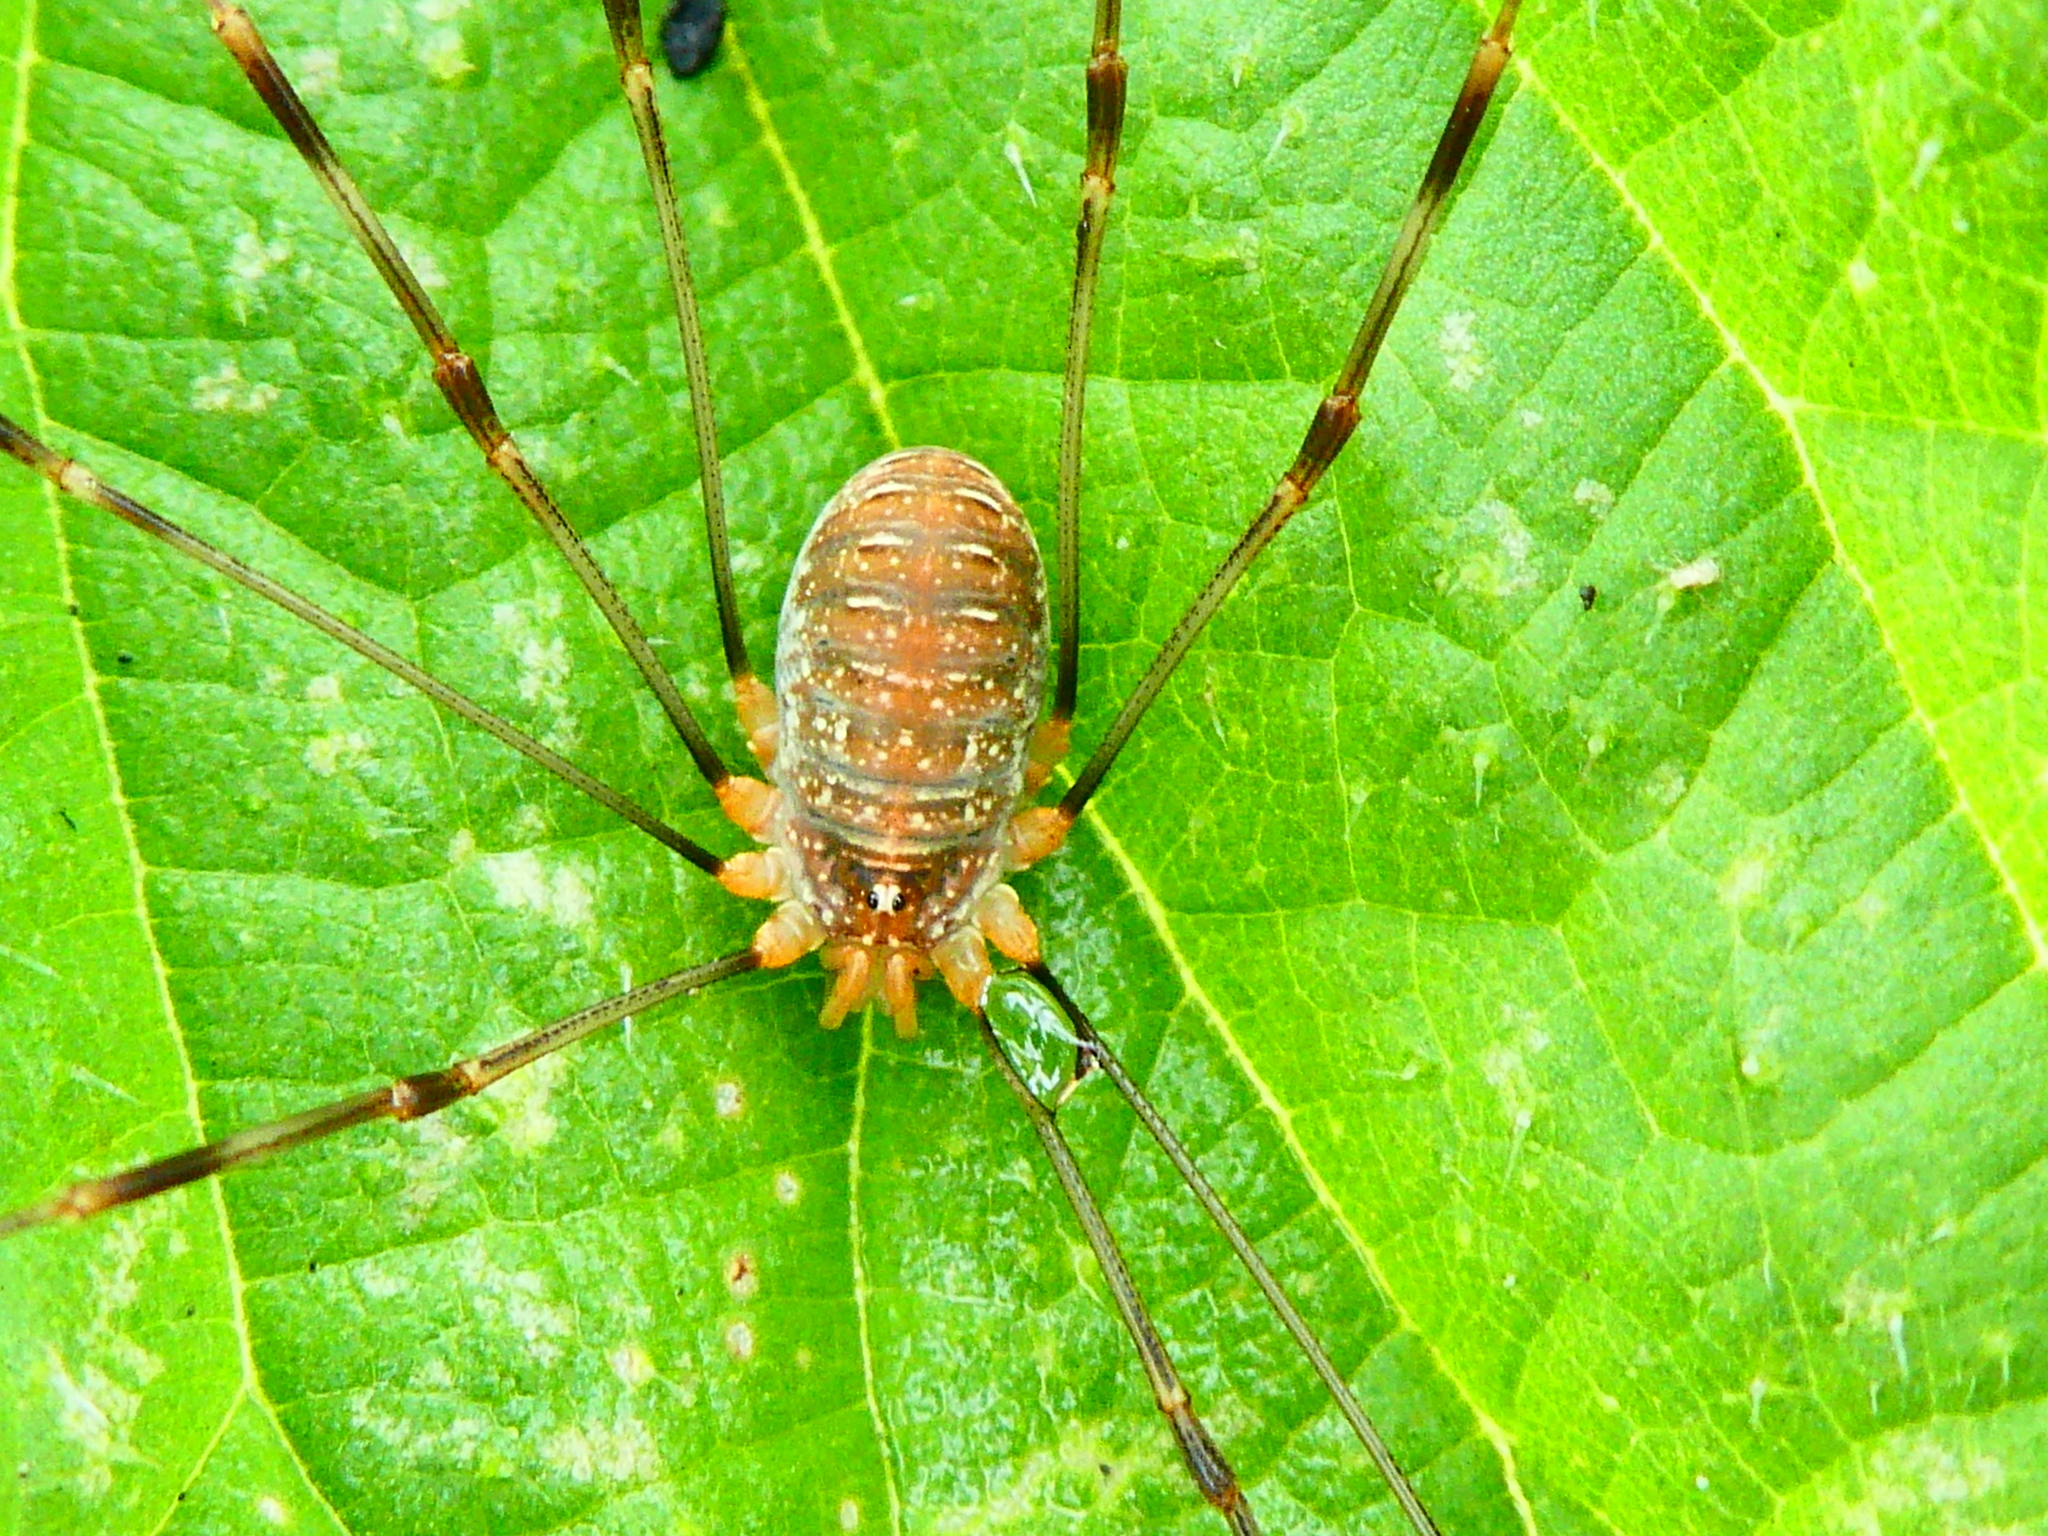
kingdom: Animalia
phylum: Arthropoda
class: Arachnida
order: Opiliones
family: Phalangiidae
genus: Opilio
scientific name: Opilio canestrinii
